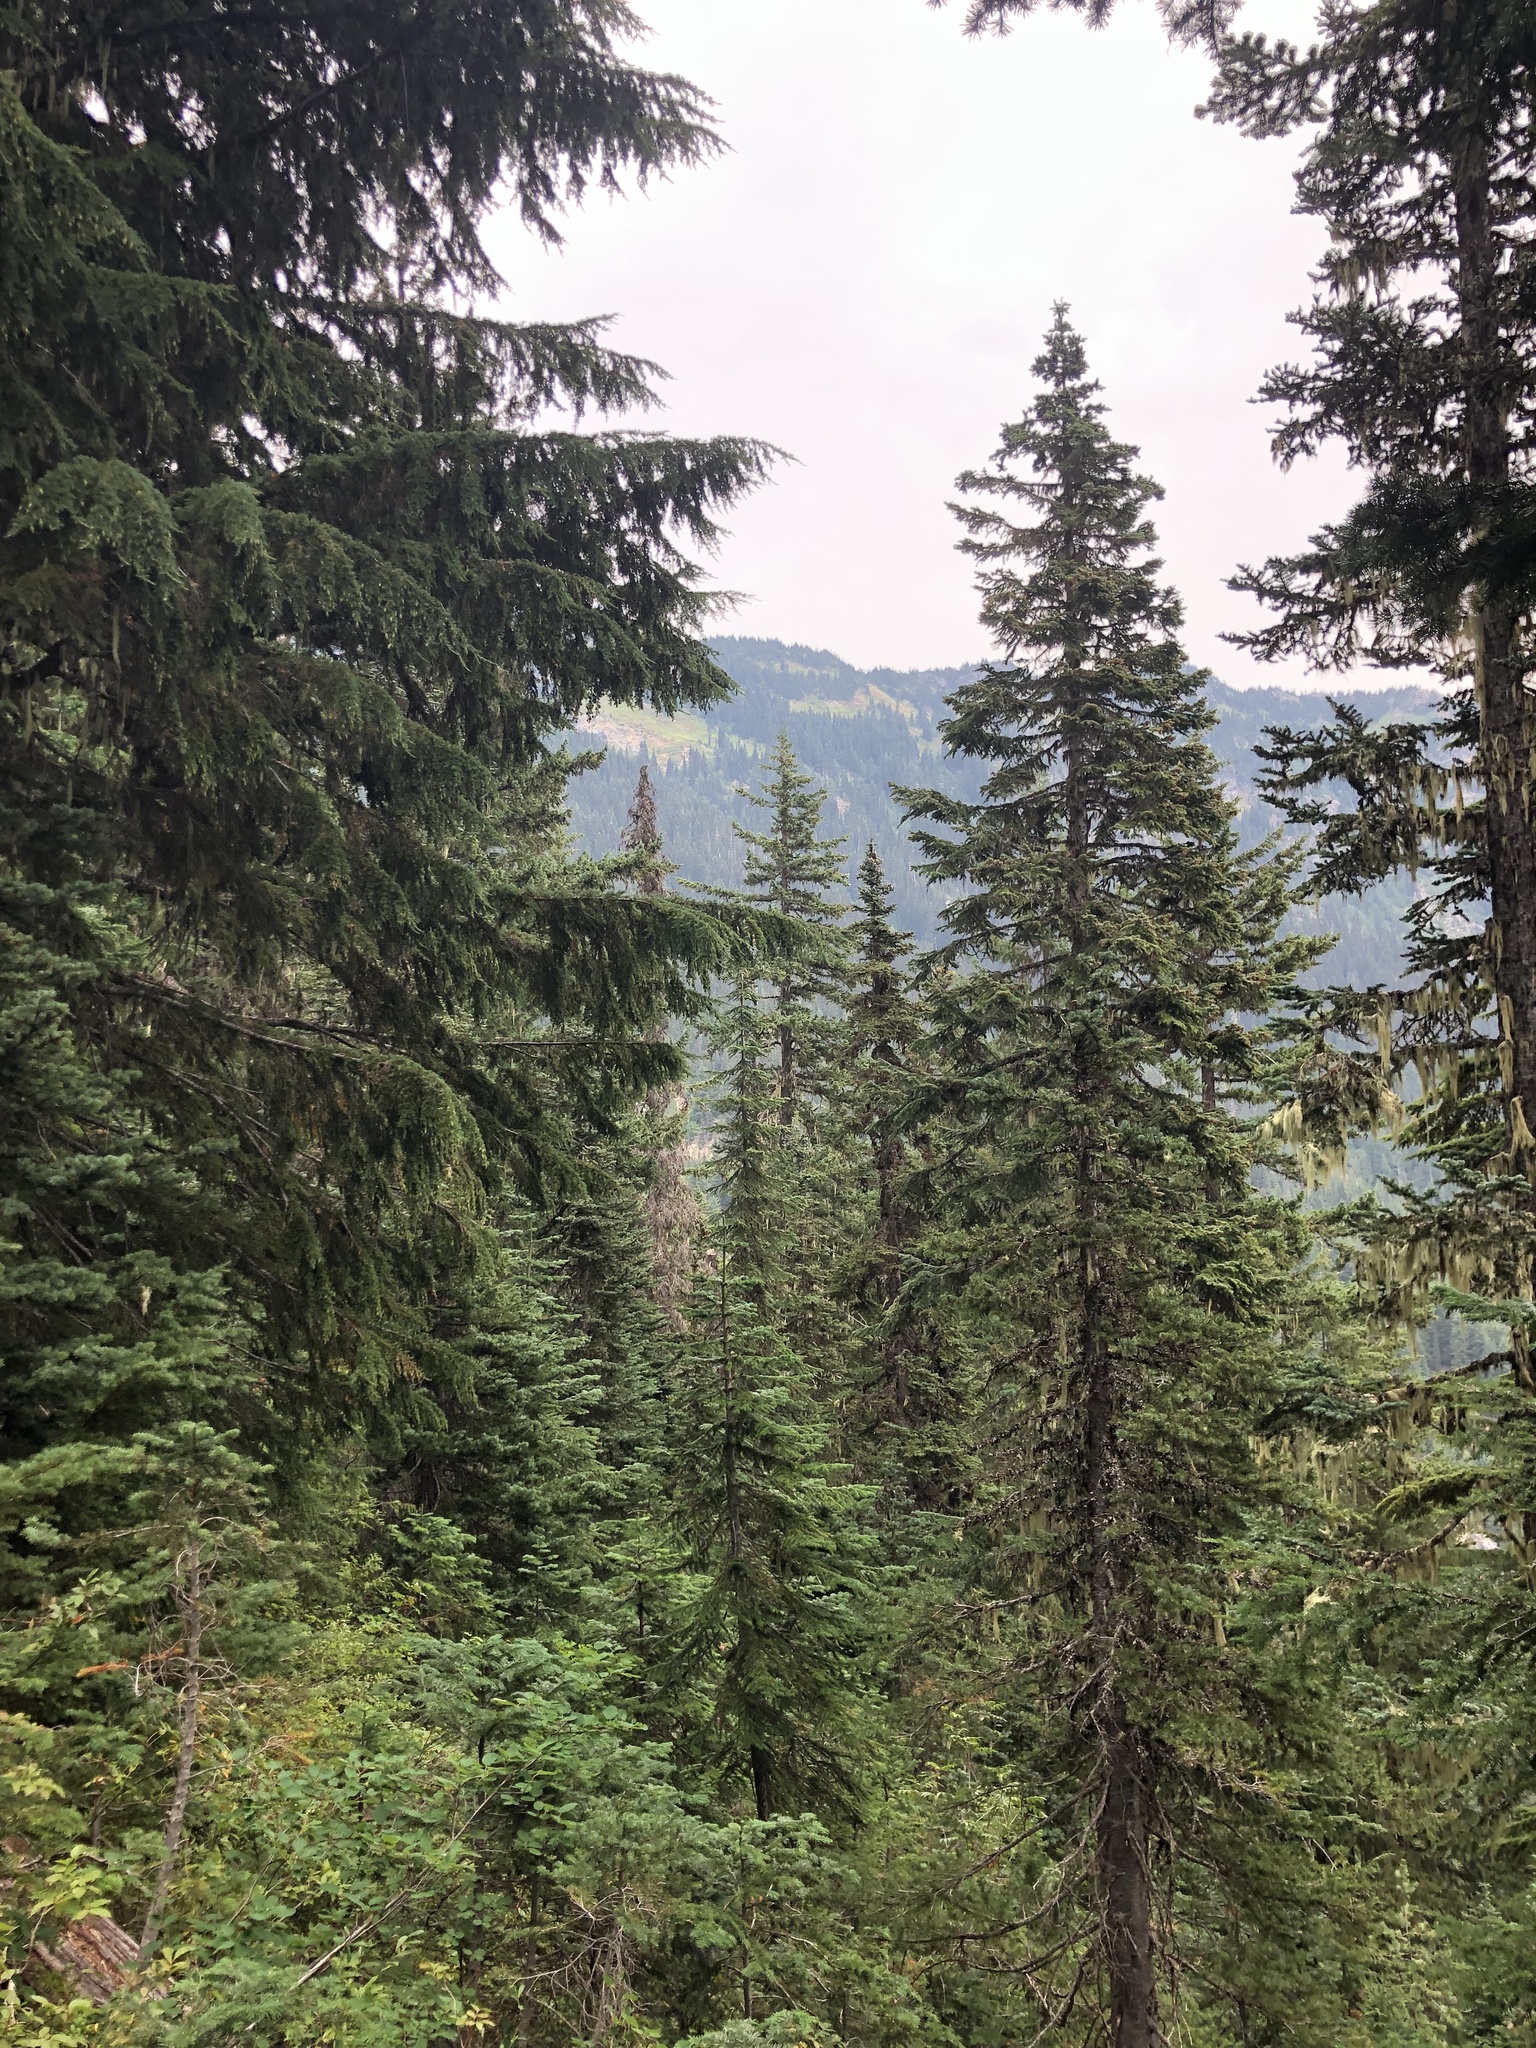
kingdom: Plantae
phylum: Tracheophyta
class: Pinopsida
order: Pinales
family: Pinaceae
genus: Abies
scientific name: Abies amabilis
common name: Pacific silver fir
